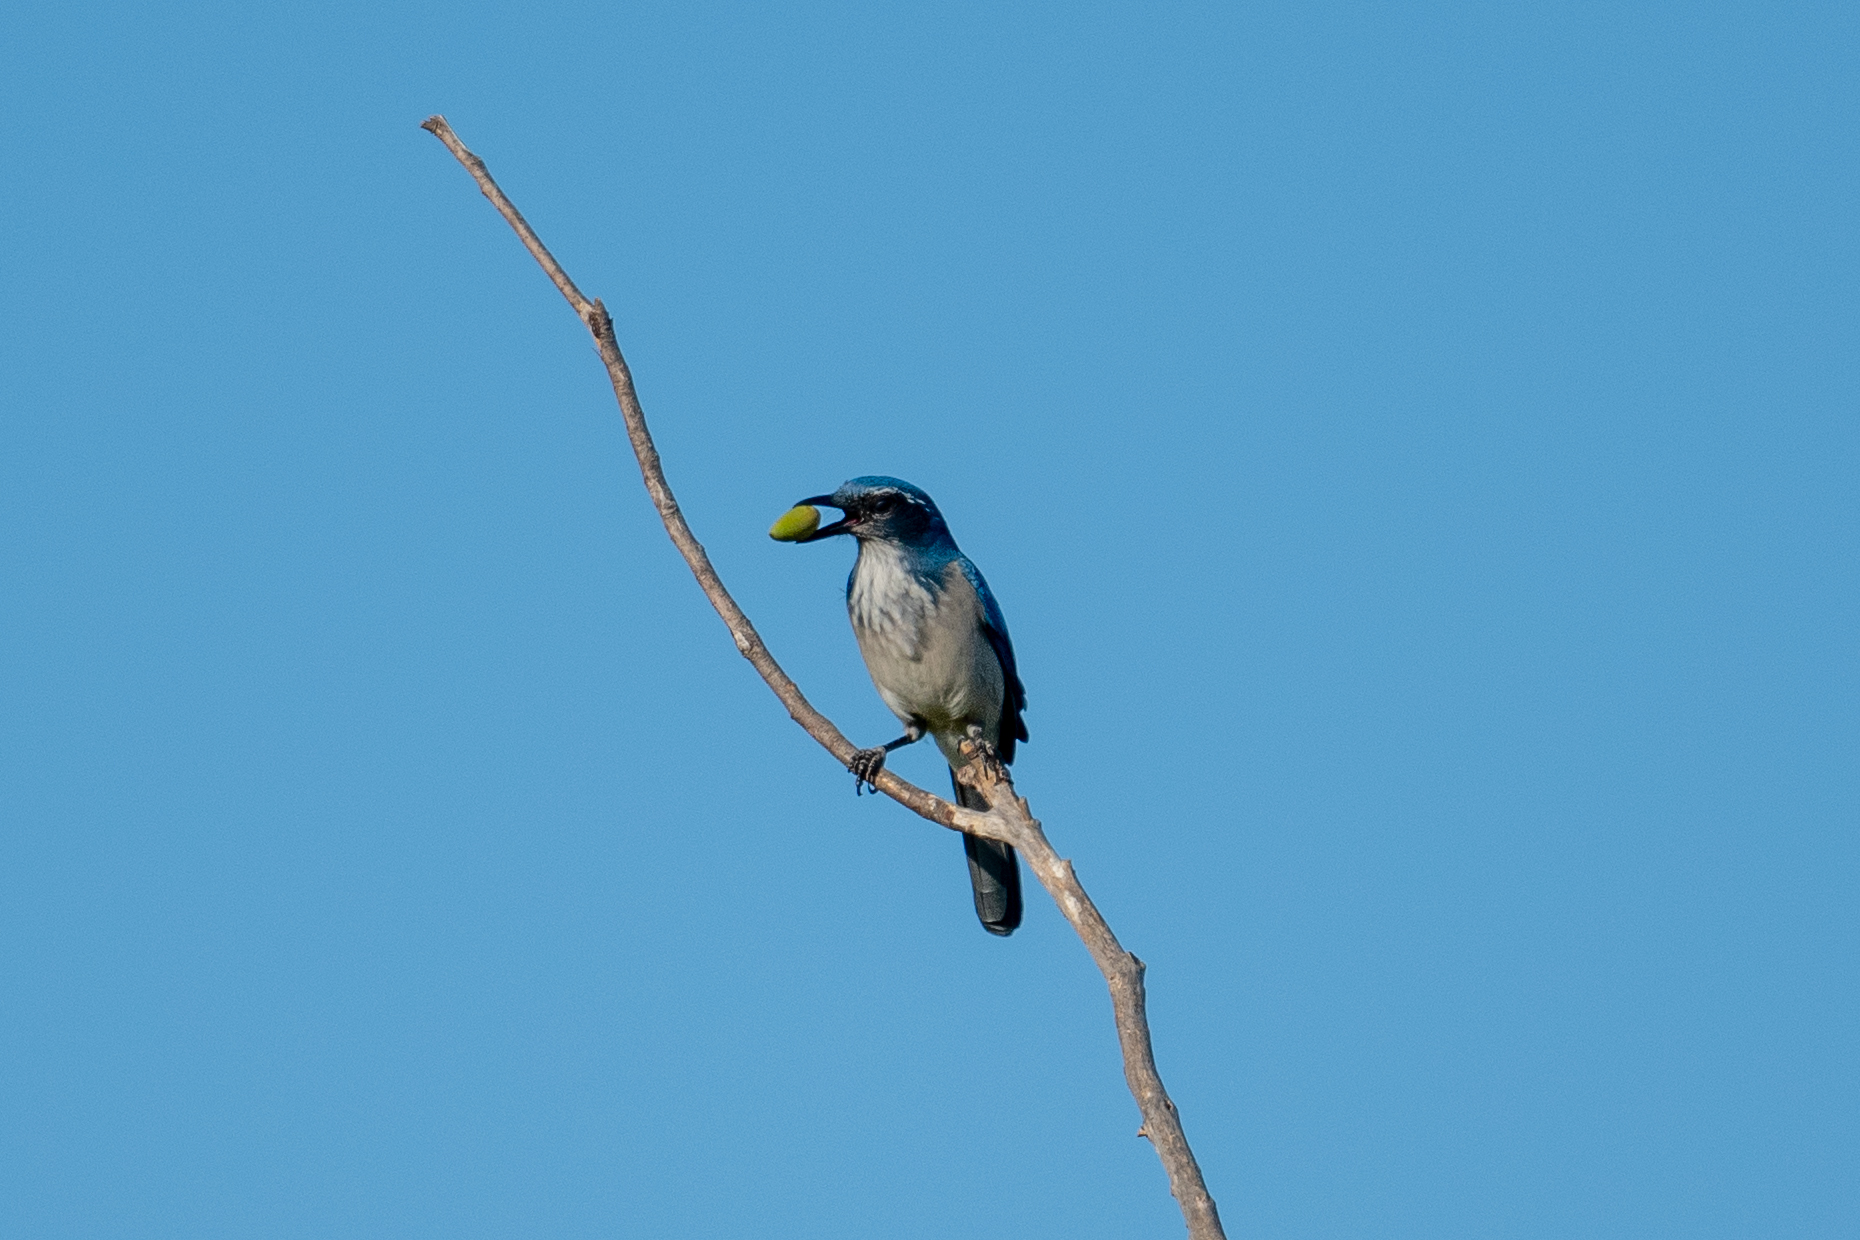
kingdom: Animalia
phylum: Chordata
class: Aves
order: Passeriformes
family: Corvidae
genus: Aphelocoma
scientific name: Aphelocoma californica
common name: California scrub-jay
